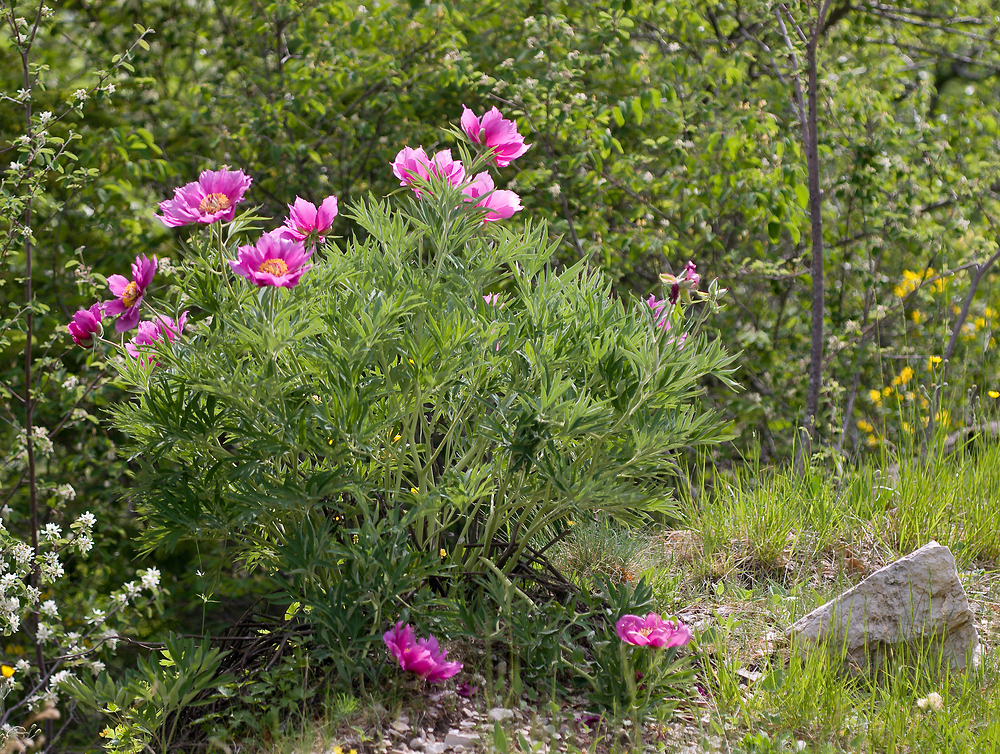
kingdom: Plantae
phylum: Tracheophyta
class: Magnoliopsida
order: Saxifragales
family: Paeoniaceae
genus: Paeonia
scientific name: Paeonia officinalis
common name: Common peony
